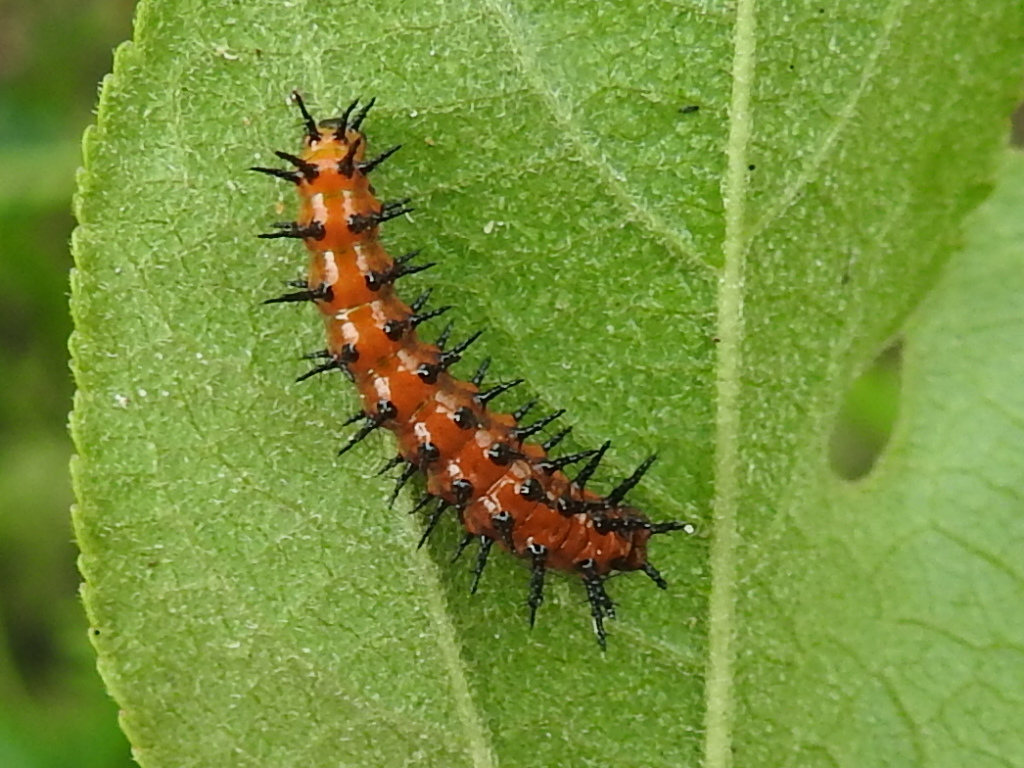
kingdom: Animalia
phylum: Arthropoda
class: Insecta
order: Lepidoptera
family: Nymphalidae
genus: Dione
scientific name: Dione vanillae
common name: Gulf fritillary
